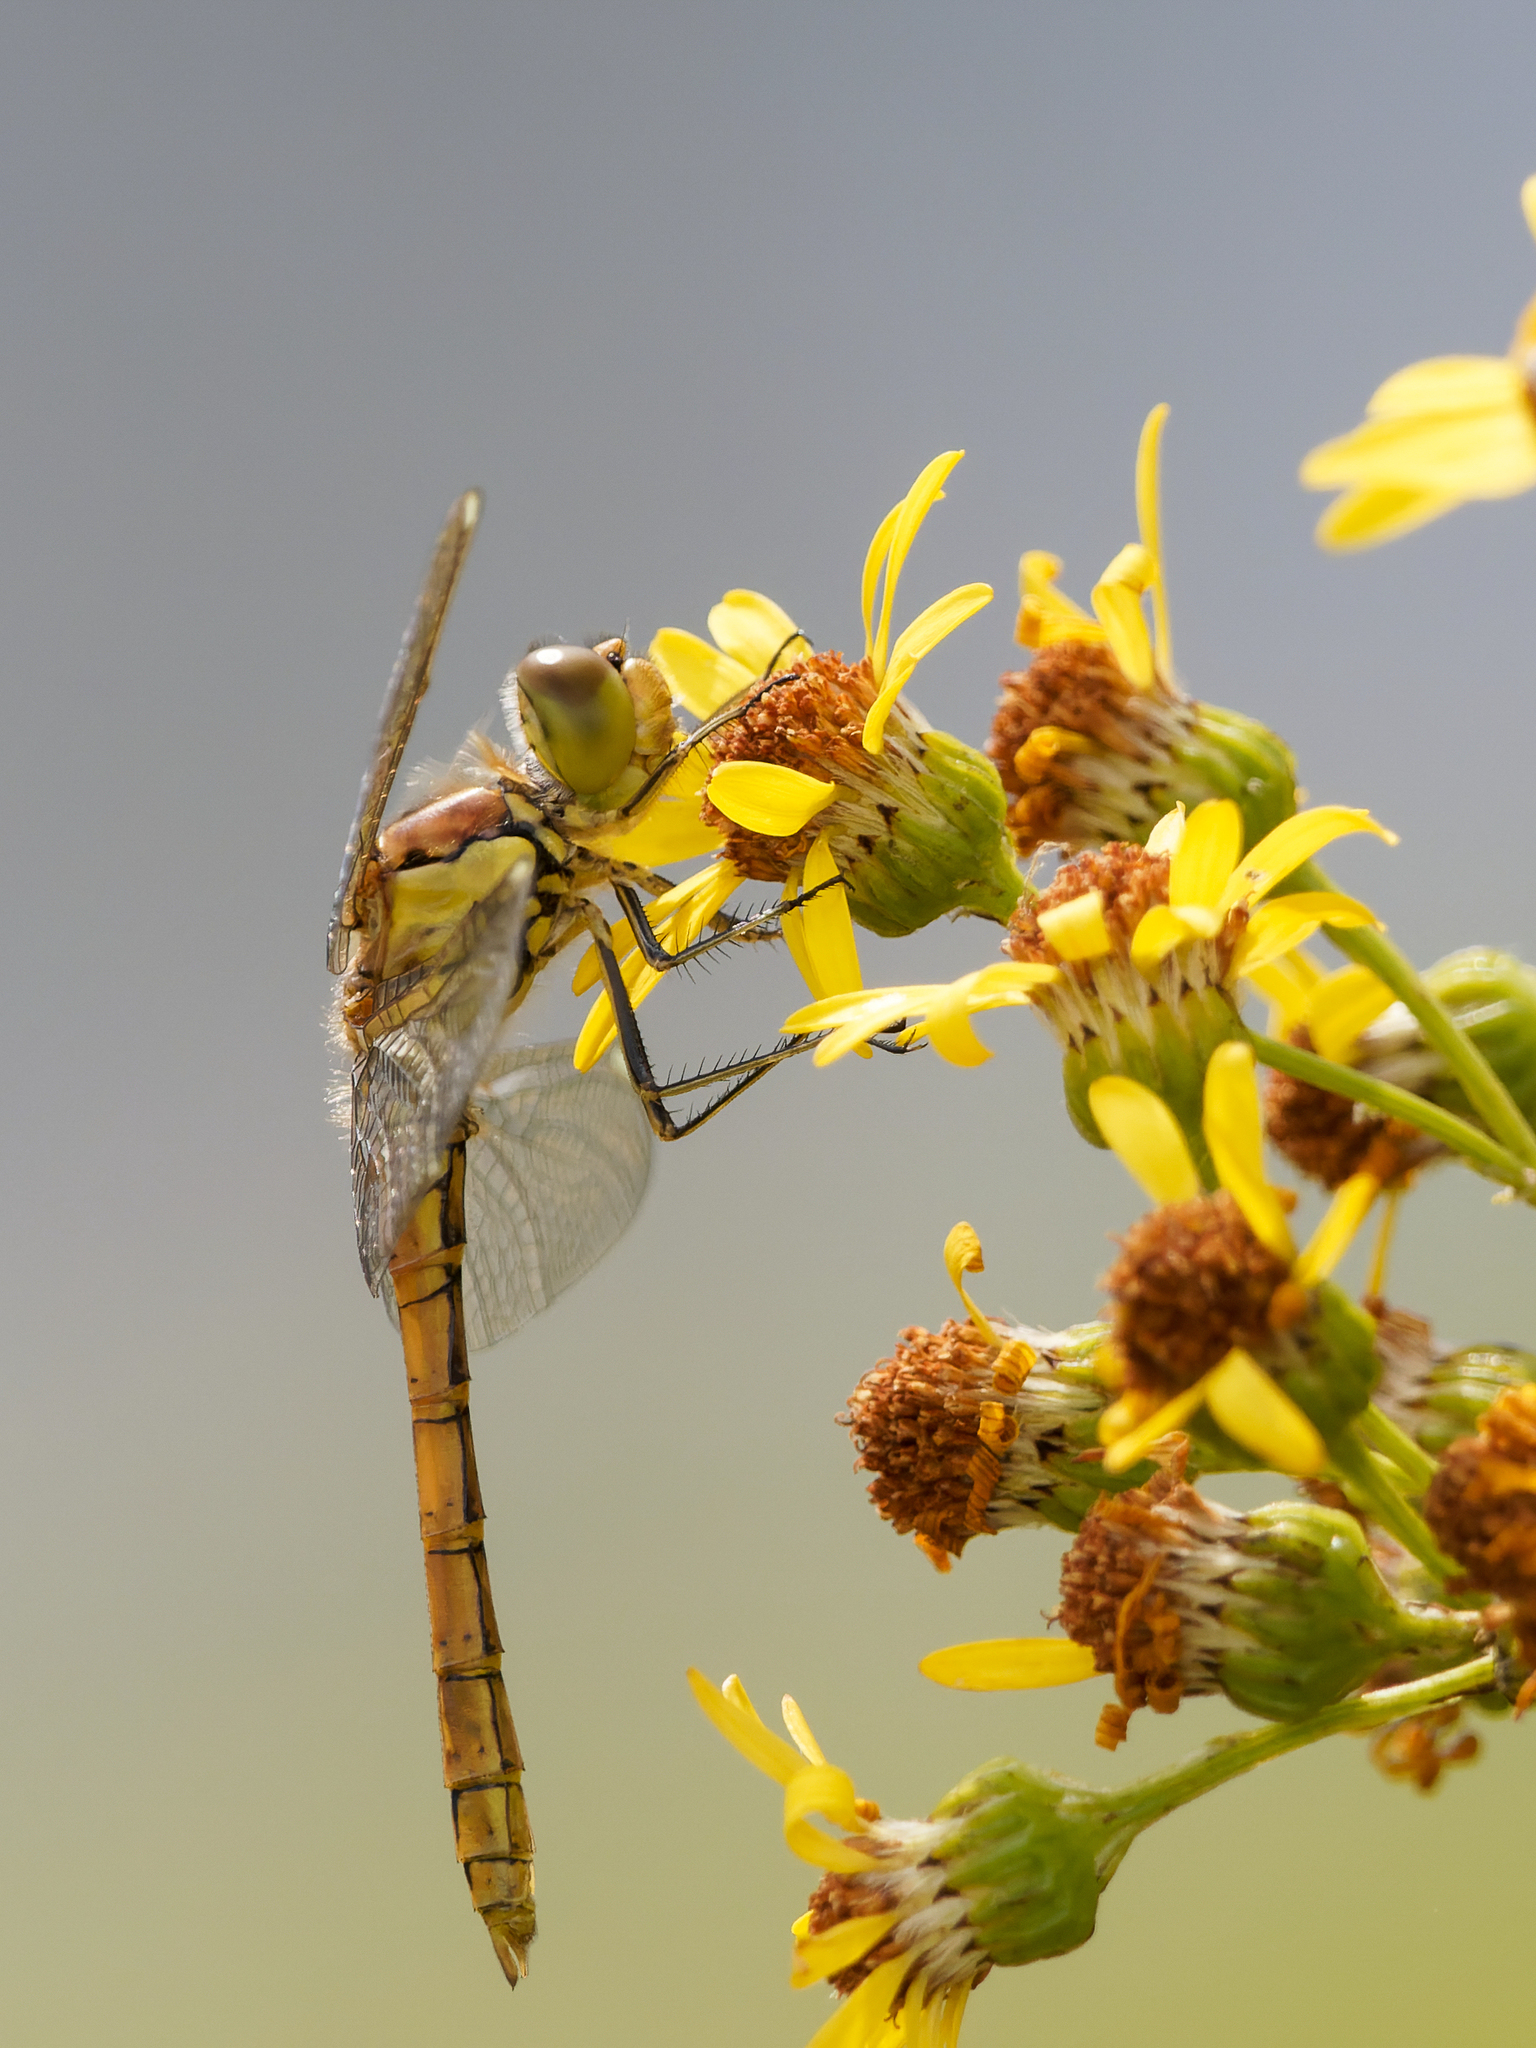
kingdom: Animalia
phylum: Arthropoda
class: Insecta
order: Odonata
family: Libellulidae
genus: Sympetrum
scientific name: Sympetrum striolatum
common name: Common darter
